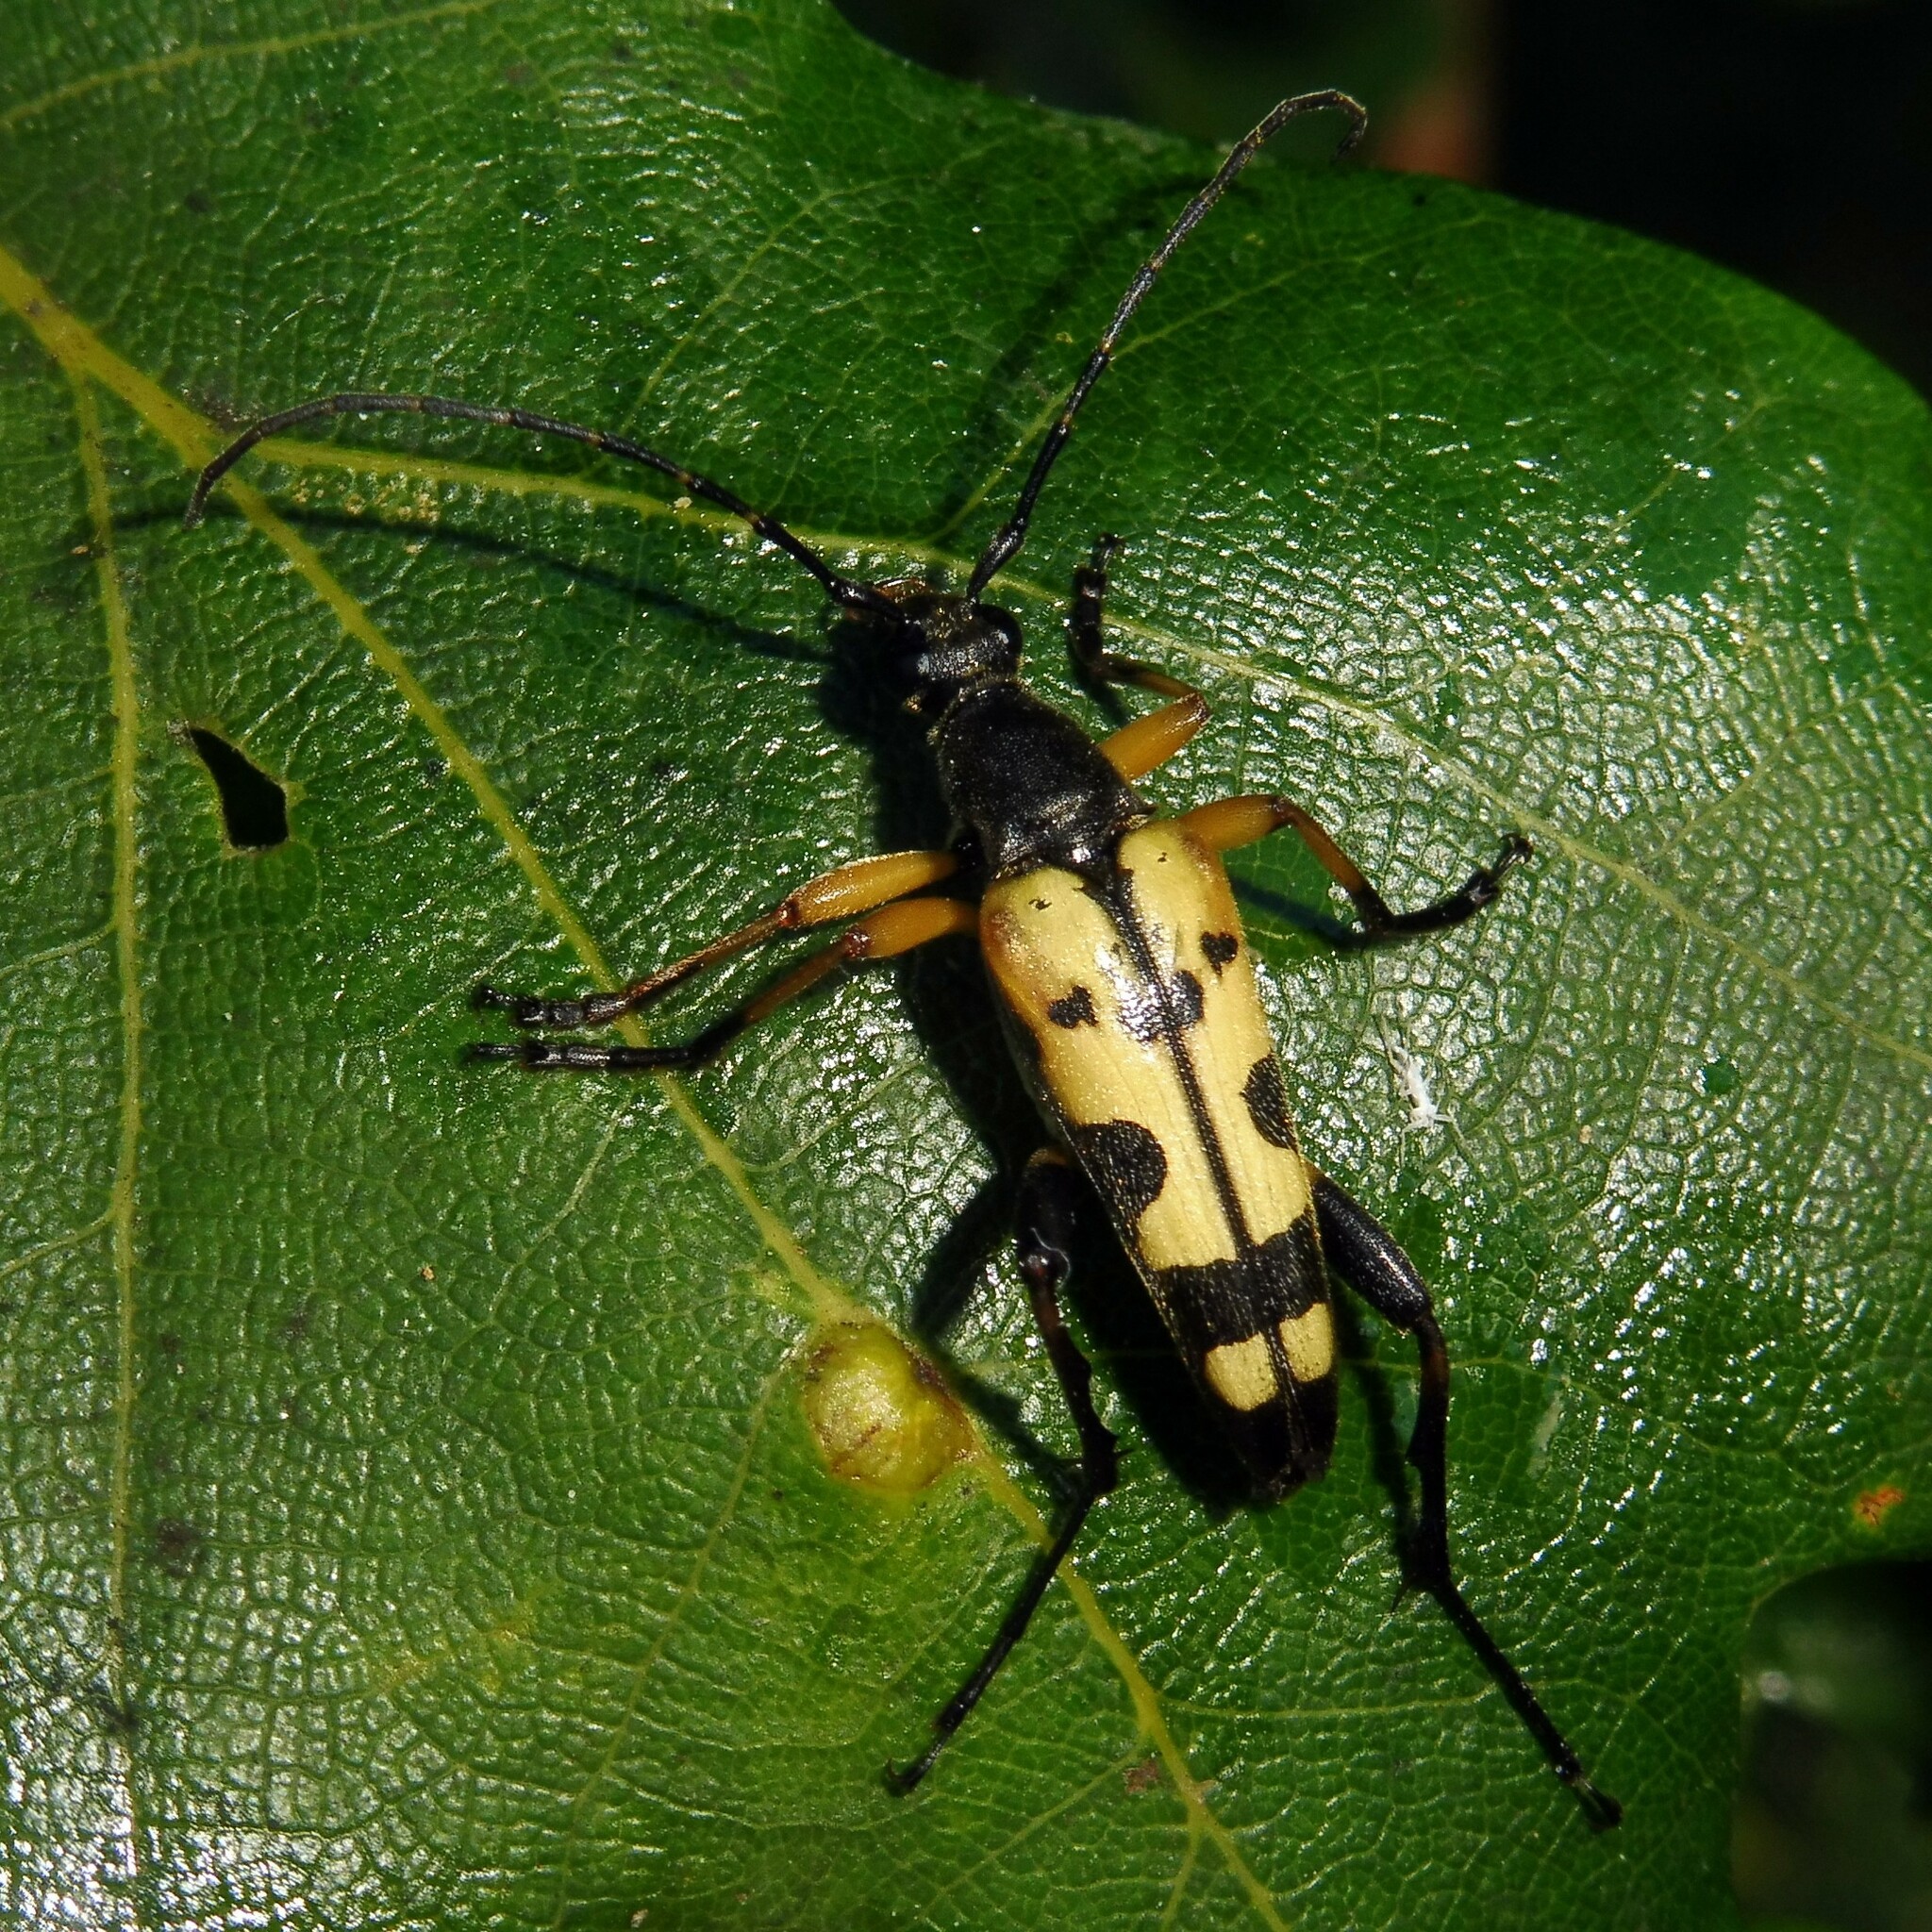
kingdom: Animalia
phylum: Arthropoda
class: Insecta
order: Coleoptera
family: Cerambycidae
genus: Rutpela
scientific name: Rutpela maculata
